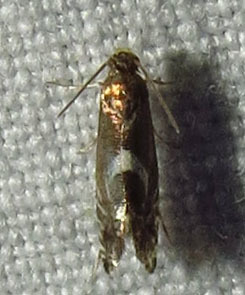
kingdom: Animalia
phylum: Arthropoda
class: Insecta
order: Lepidoptera
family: Glyphipterigidae
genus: Glyphipterix
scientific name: Glyphipterix Diploschizia impigritella
